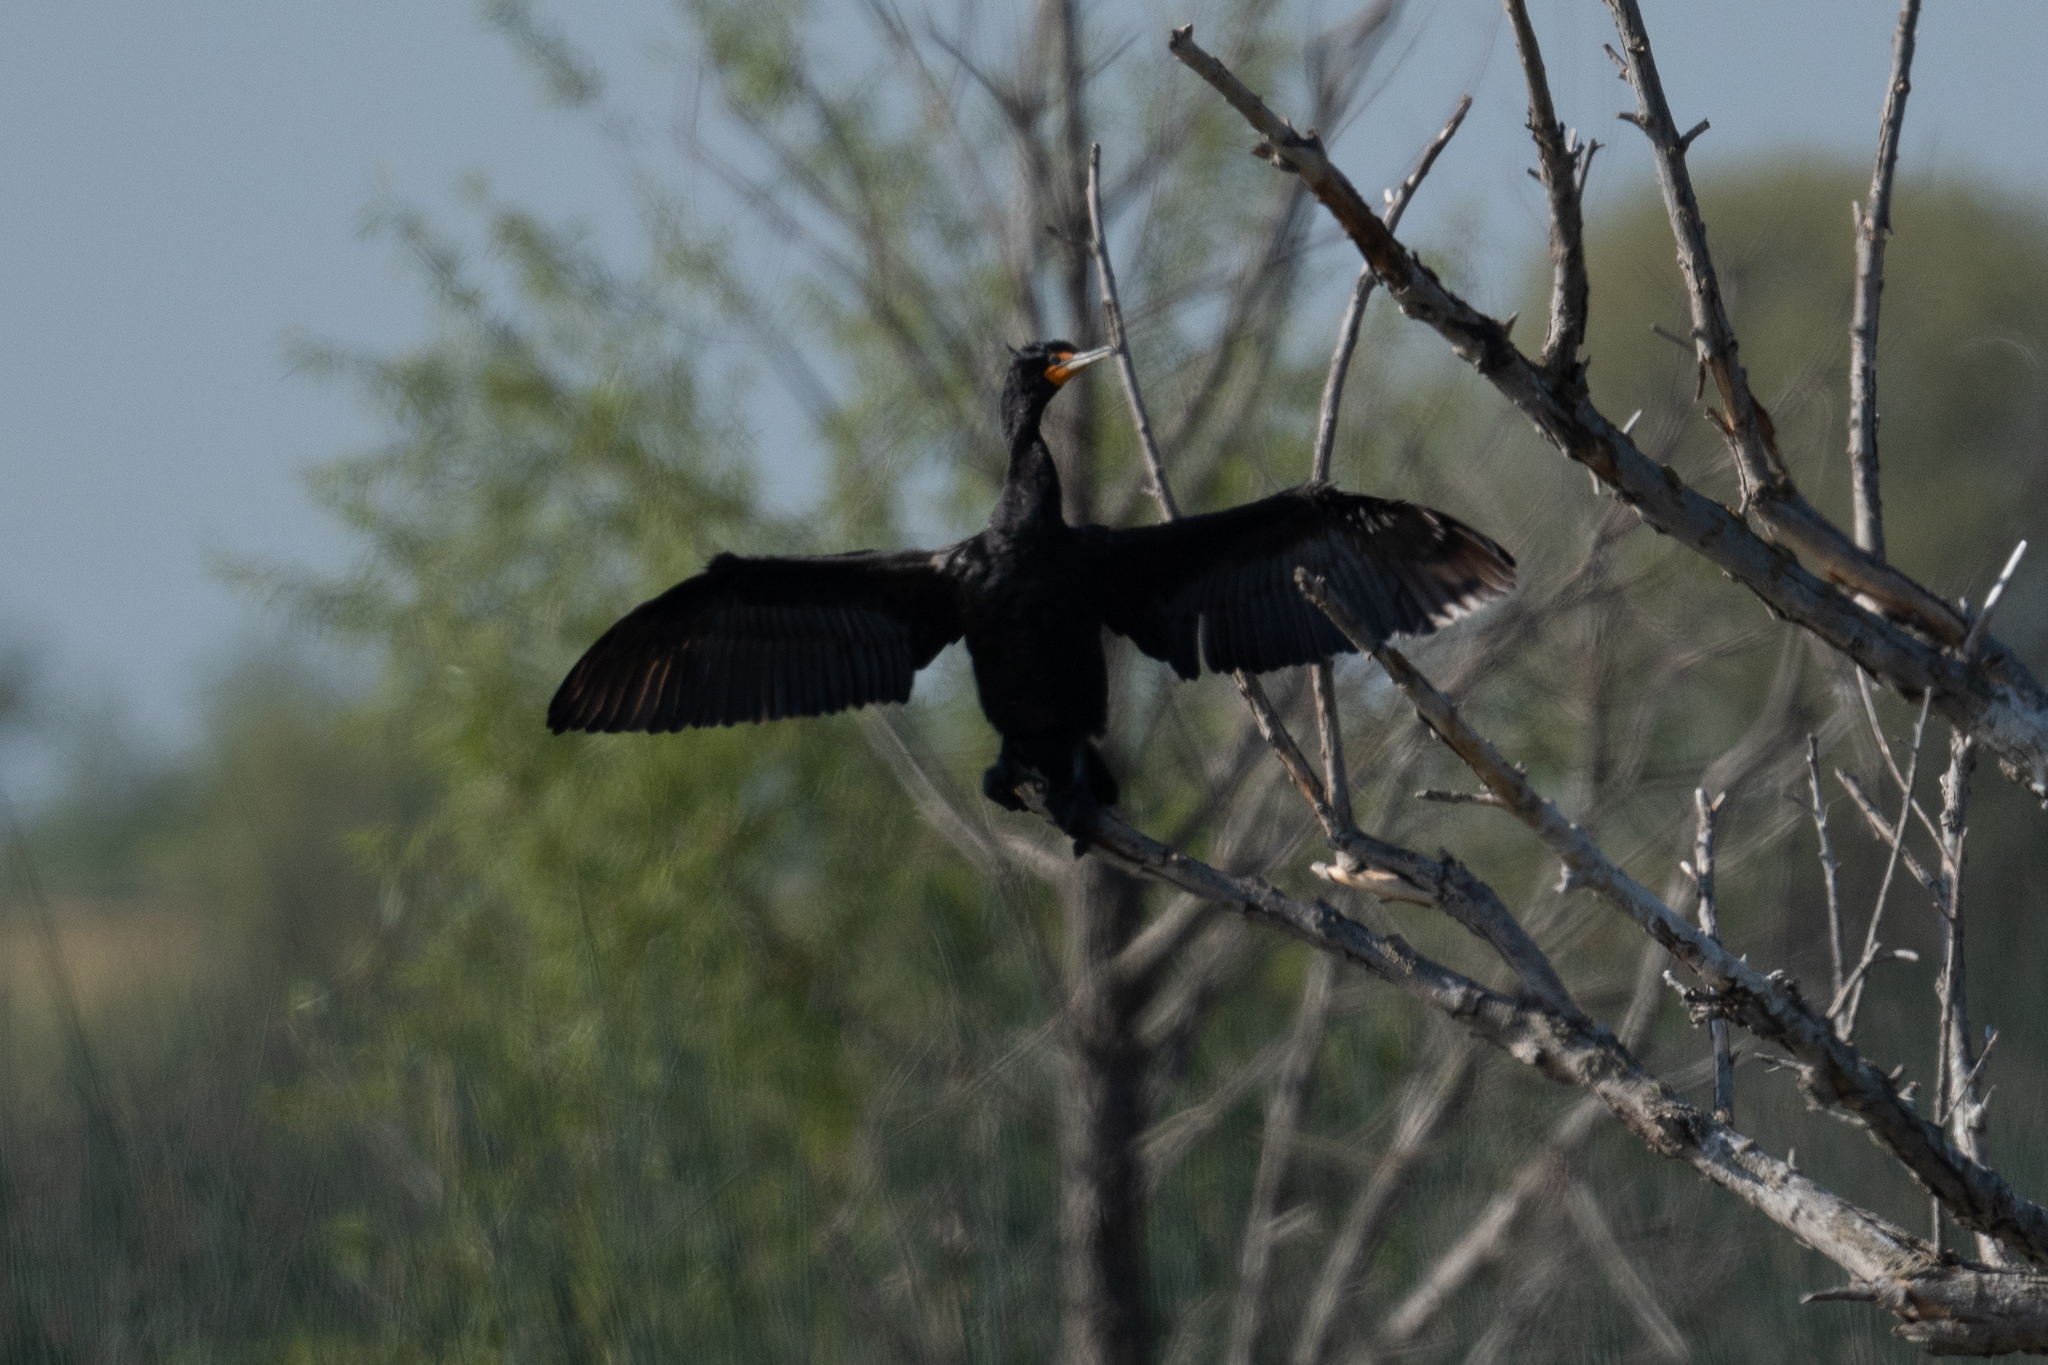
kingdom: Animalia
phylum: Chordata
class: Aves
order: Suliformes
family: Phalacrocoracidae
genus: Phalacrocorax
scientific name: Phalacrocorax auritus
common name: Double-crested cormorant
